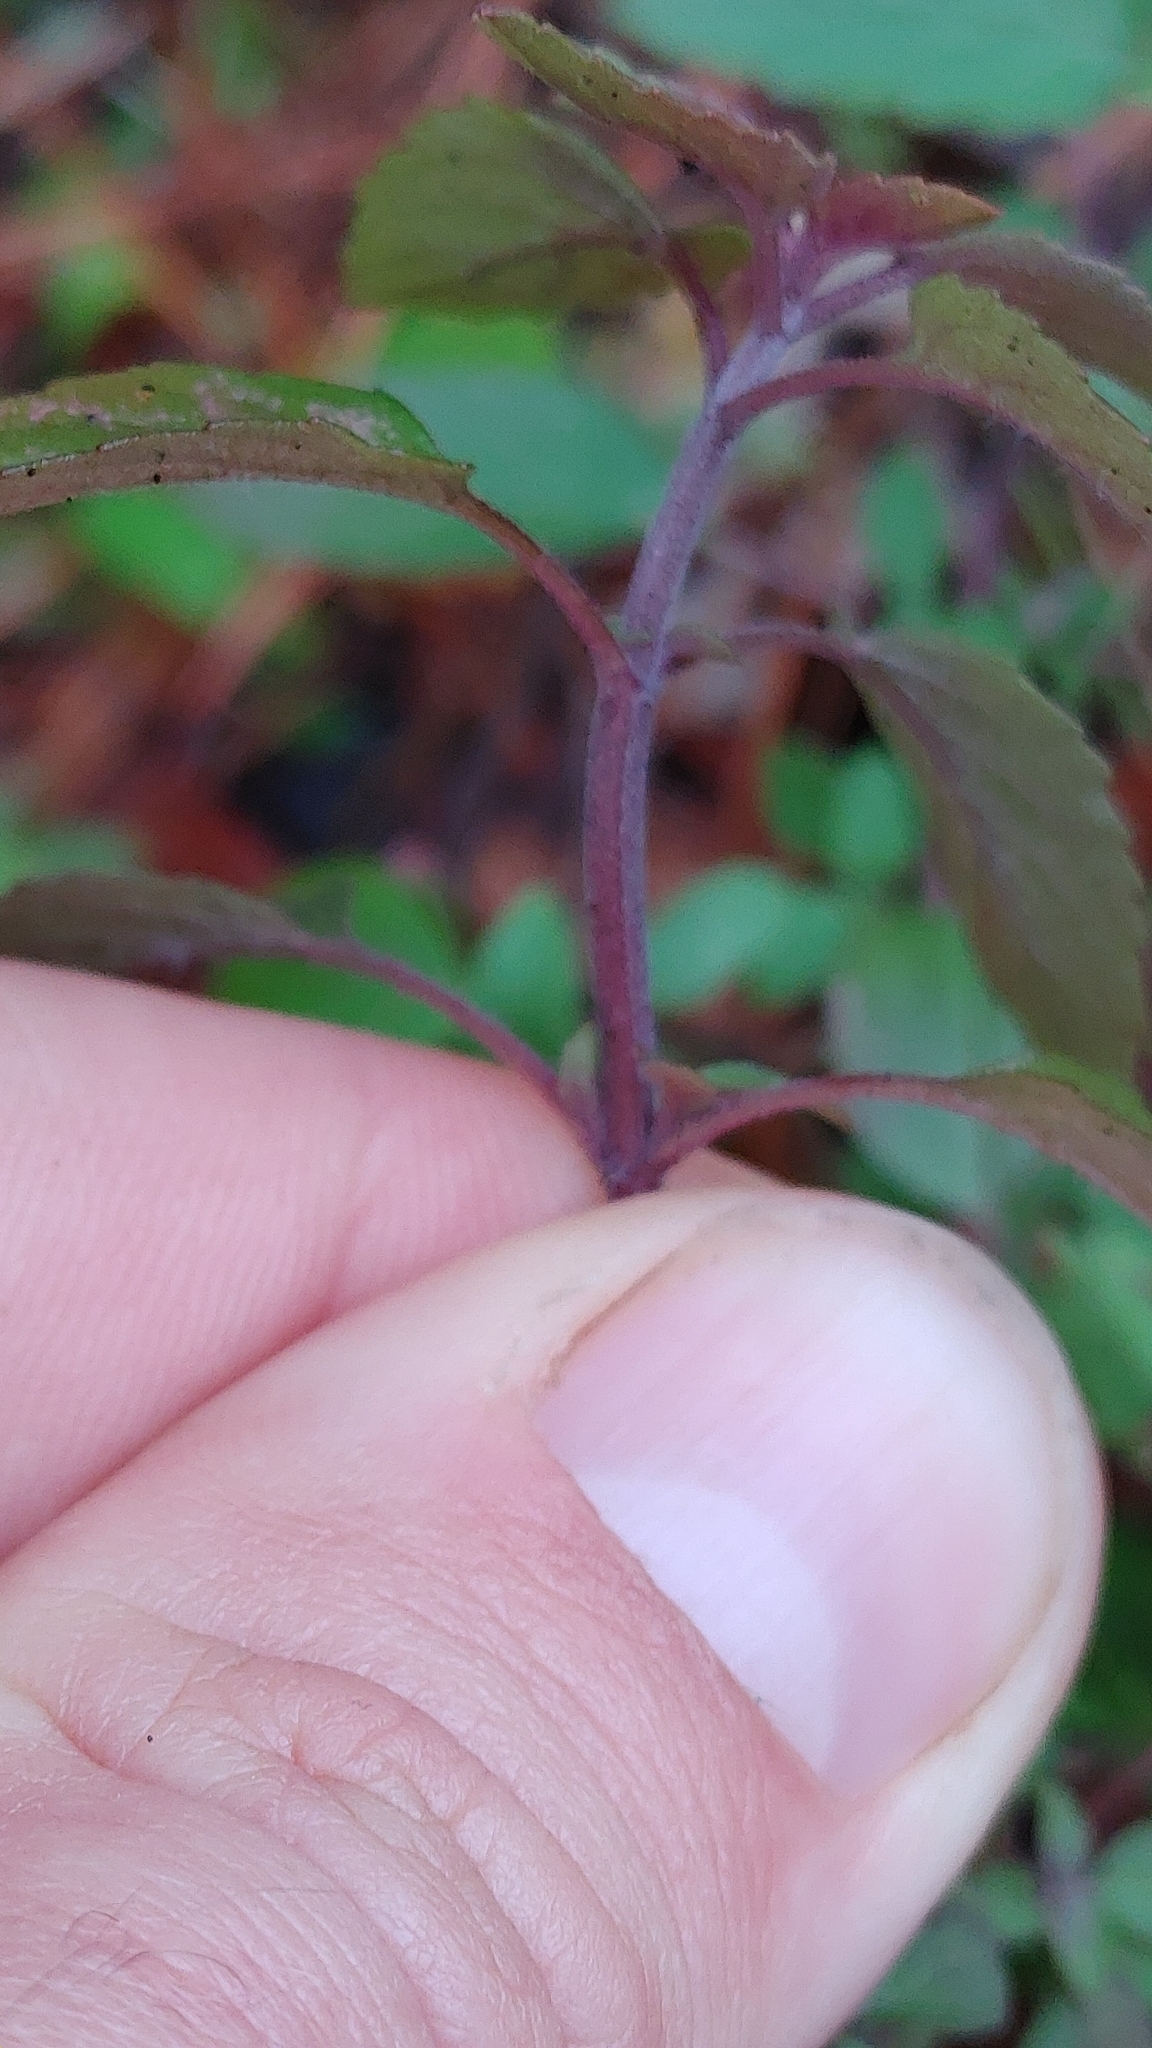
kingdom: Plantae
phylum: Tracheophyta
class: Magnoliopsida
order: Lamiales
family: Lamiaceae
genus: Monarda
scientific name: Monarda punctata
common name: Dotted monarda
